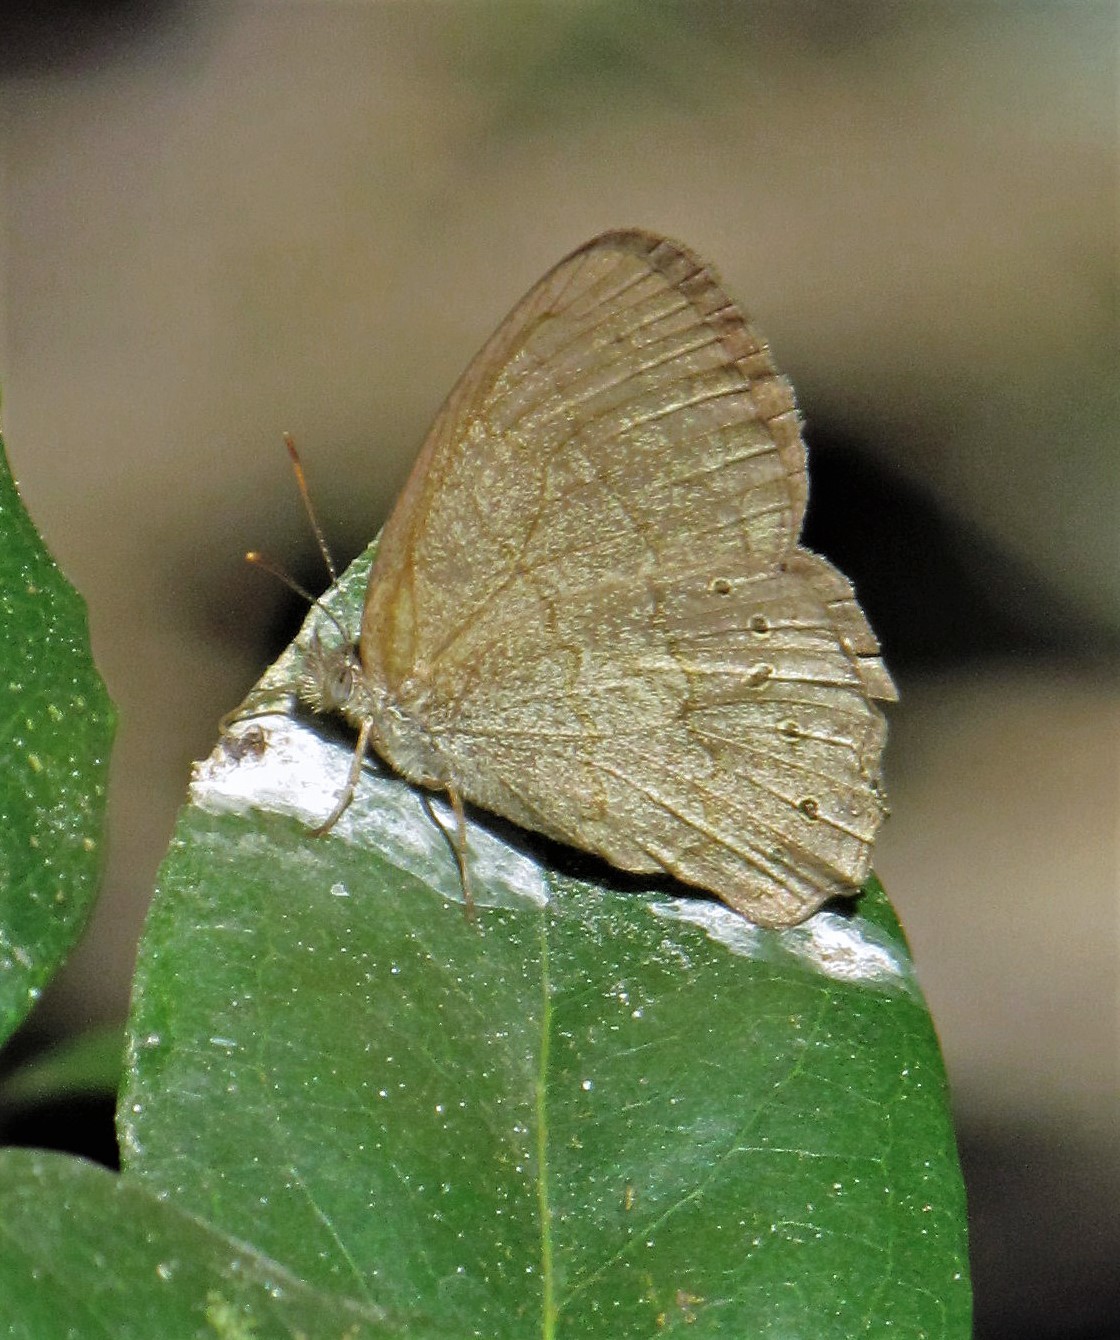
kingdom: Animalia
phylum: Arthropoda
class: Insecta
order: Lepidoptera
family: Nymphalidae
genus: Paryphthimoides
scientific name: Paryphthimoides poltys
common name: Poltys satyr
